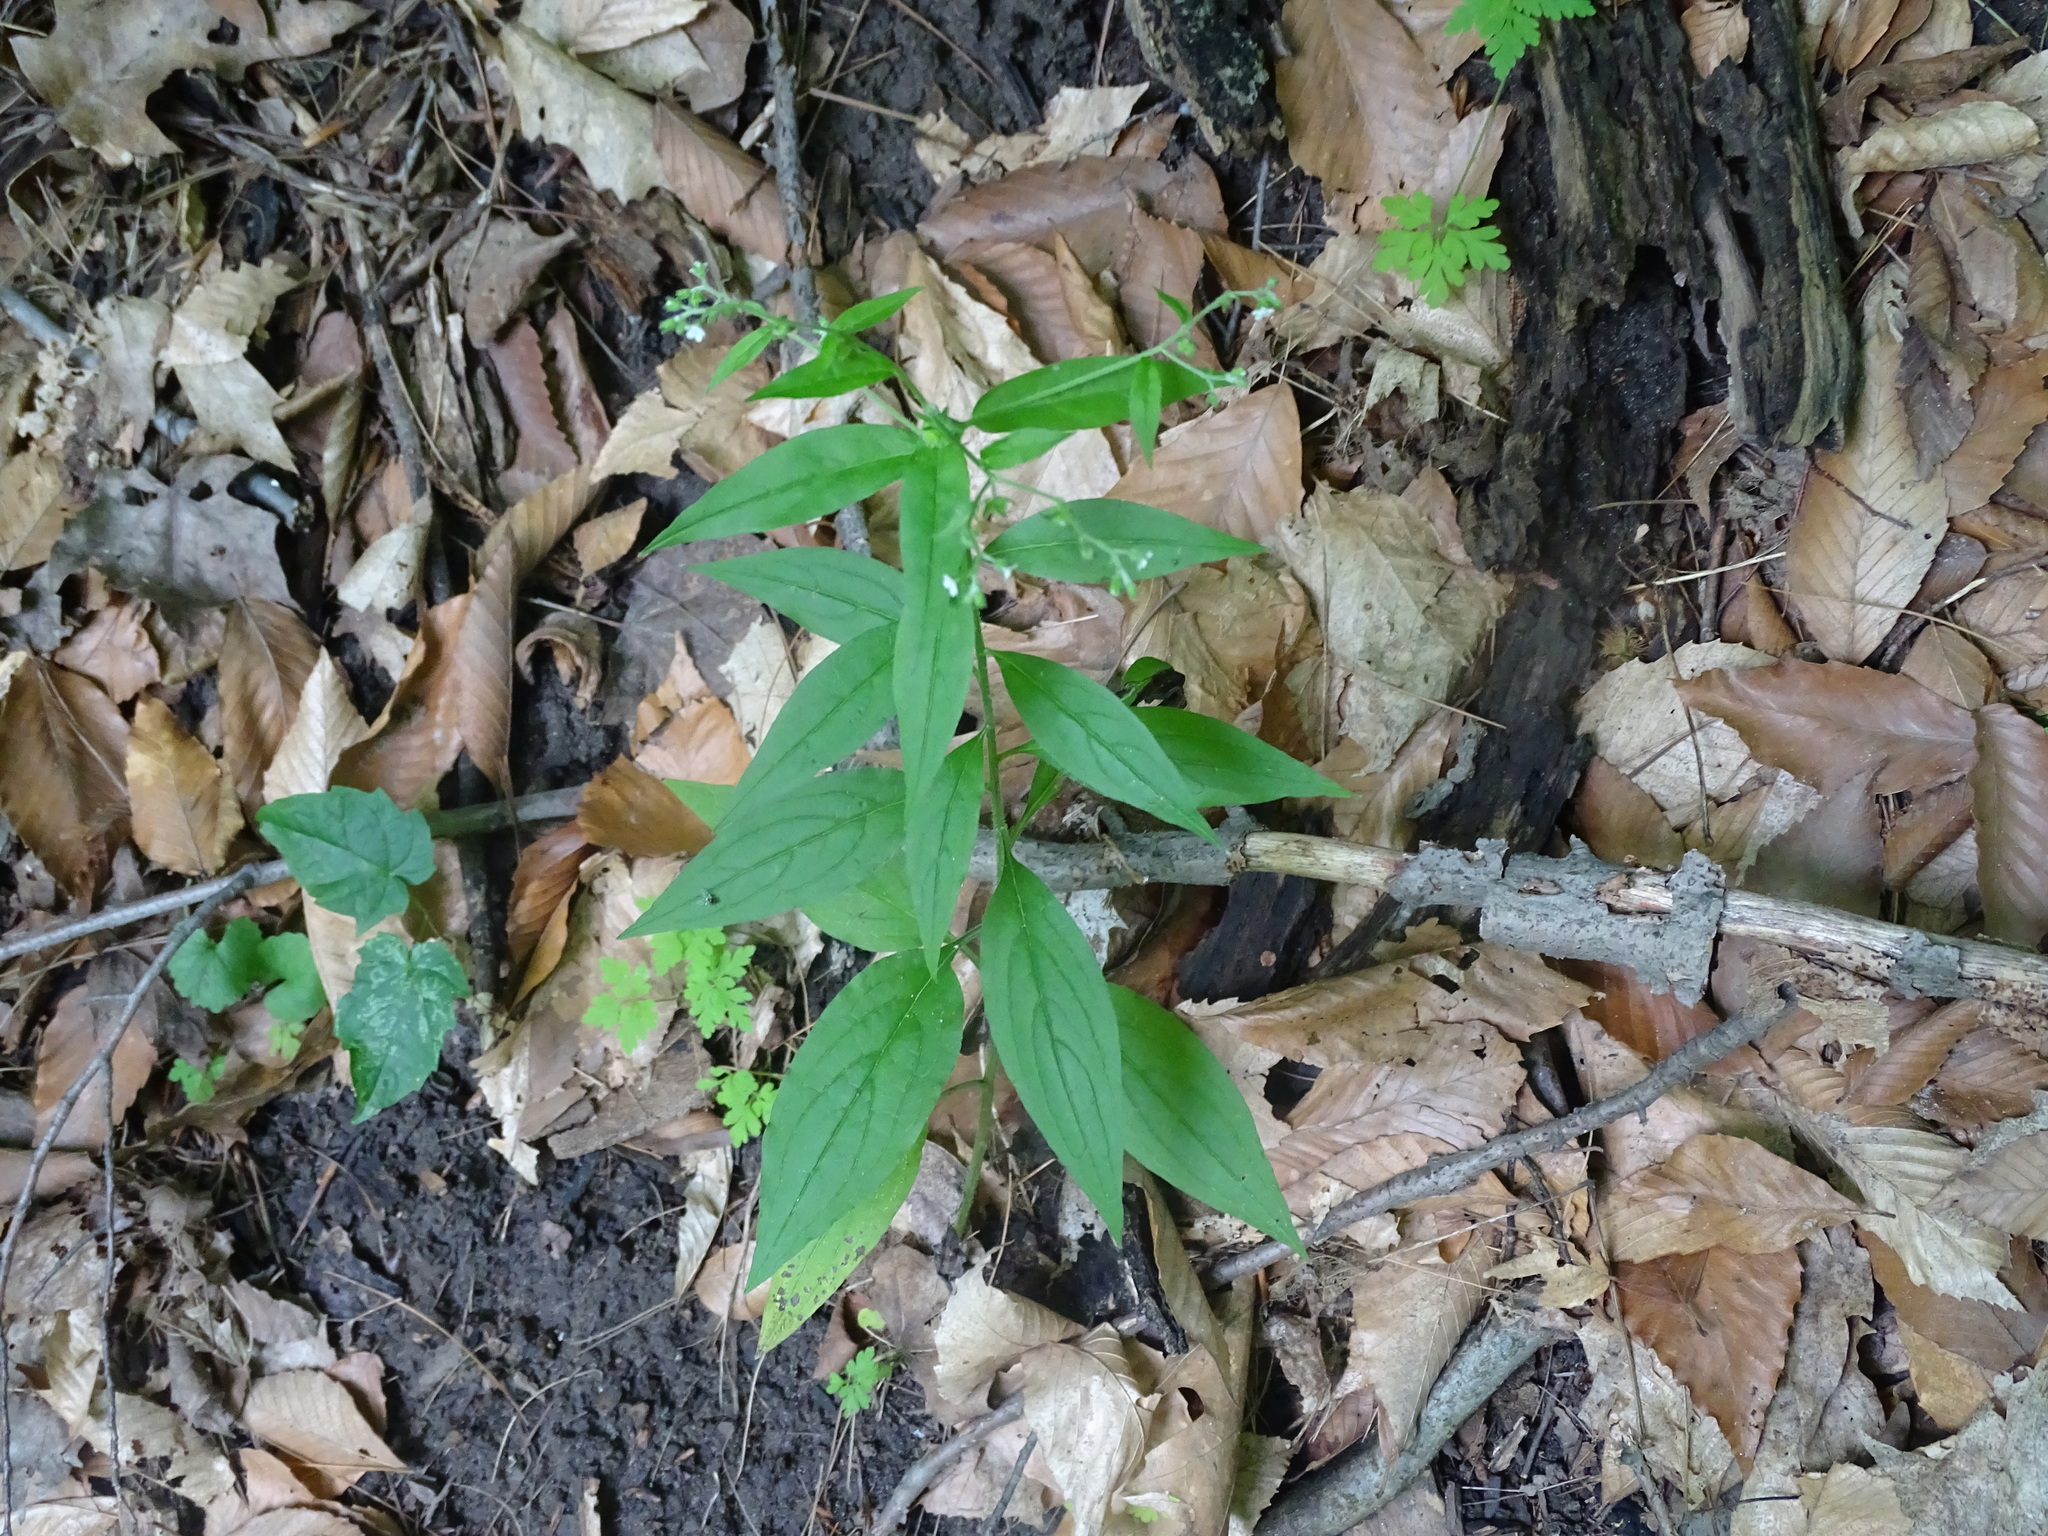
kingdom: Plantae
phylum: Tracheophyta
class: Magnoliopsida
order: Boraginales
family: Boraginaceae
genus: Hackelia
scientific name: Hackelia virginiana
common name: Beggar's-lice
